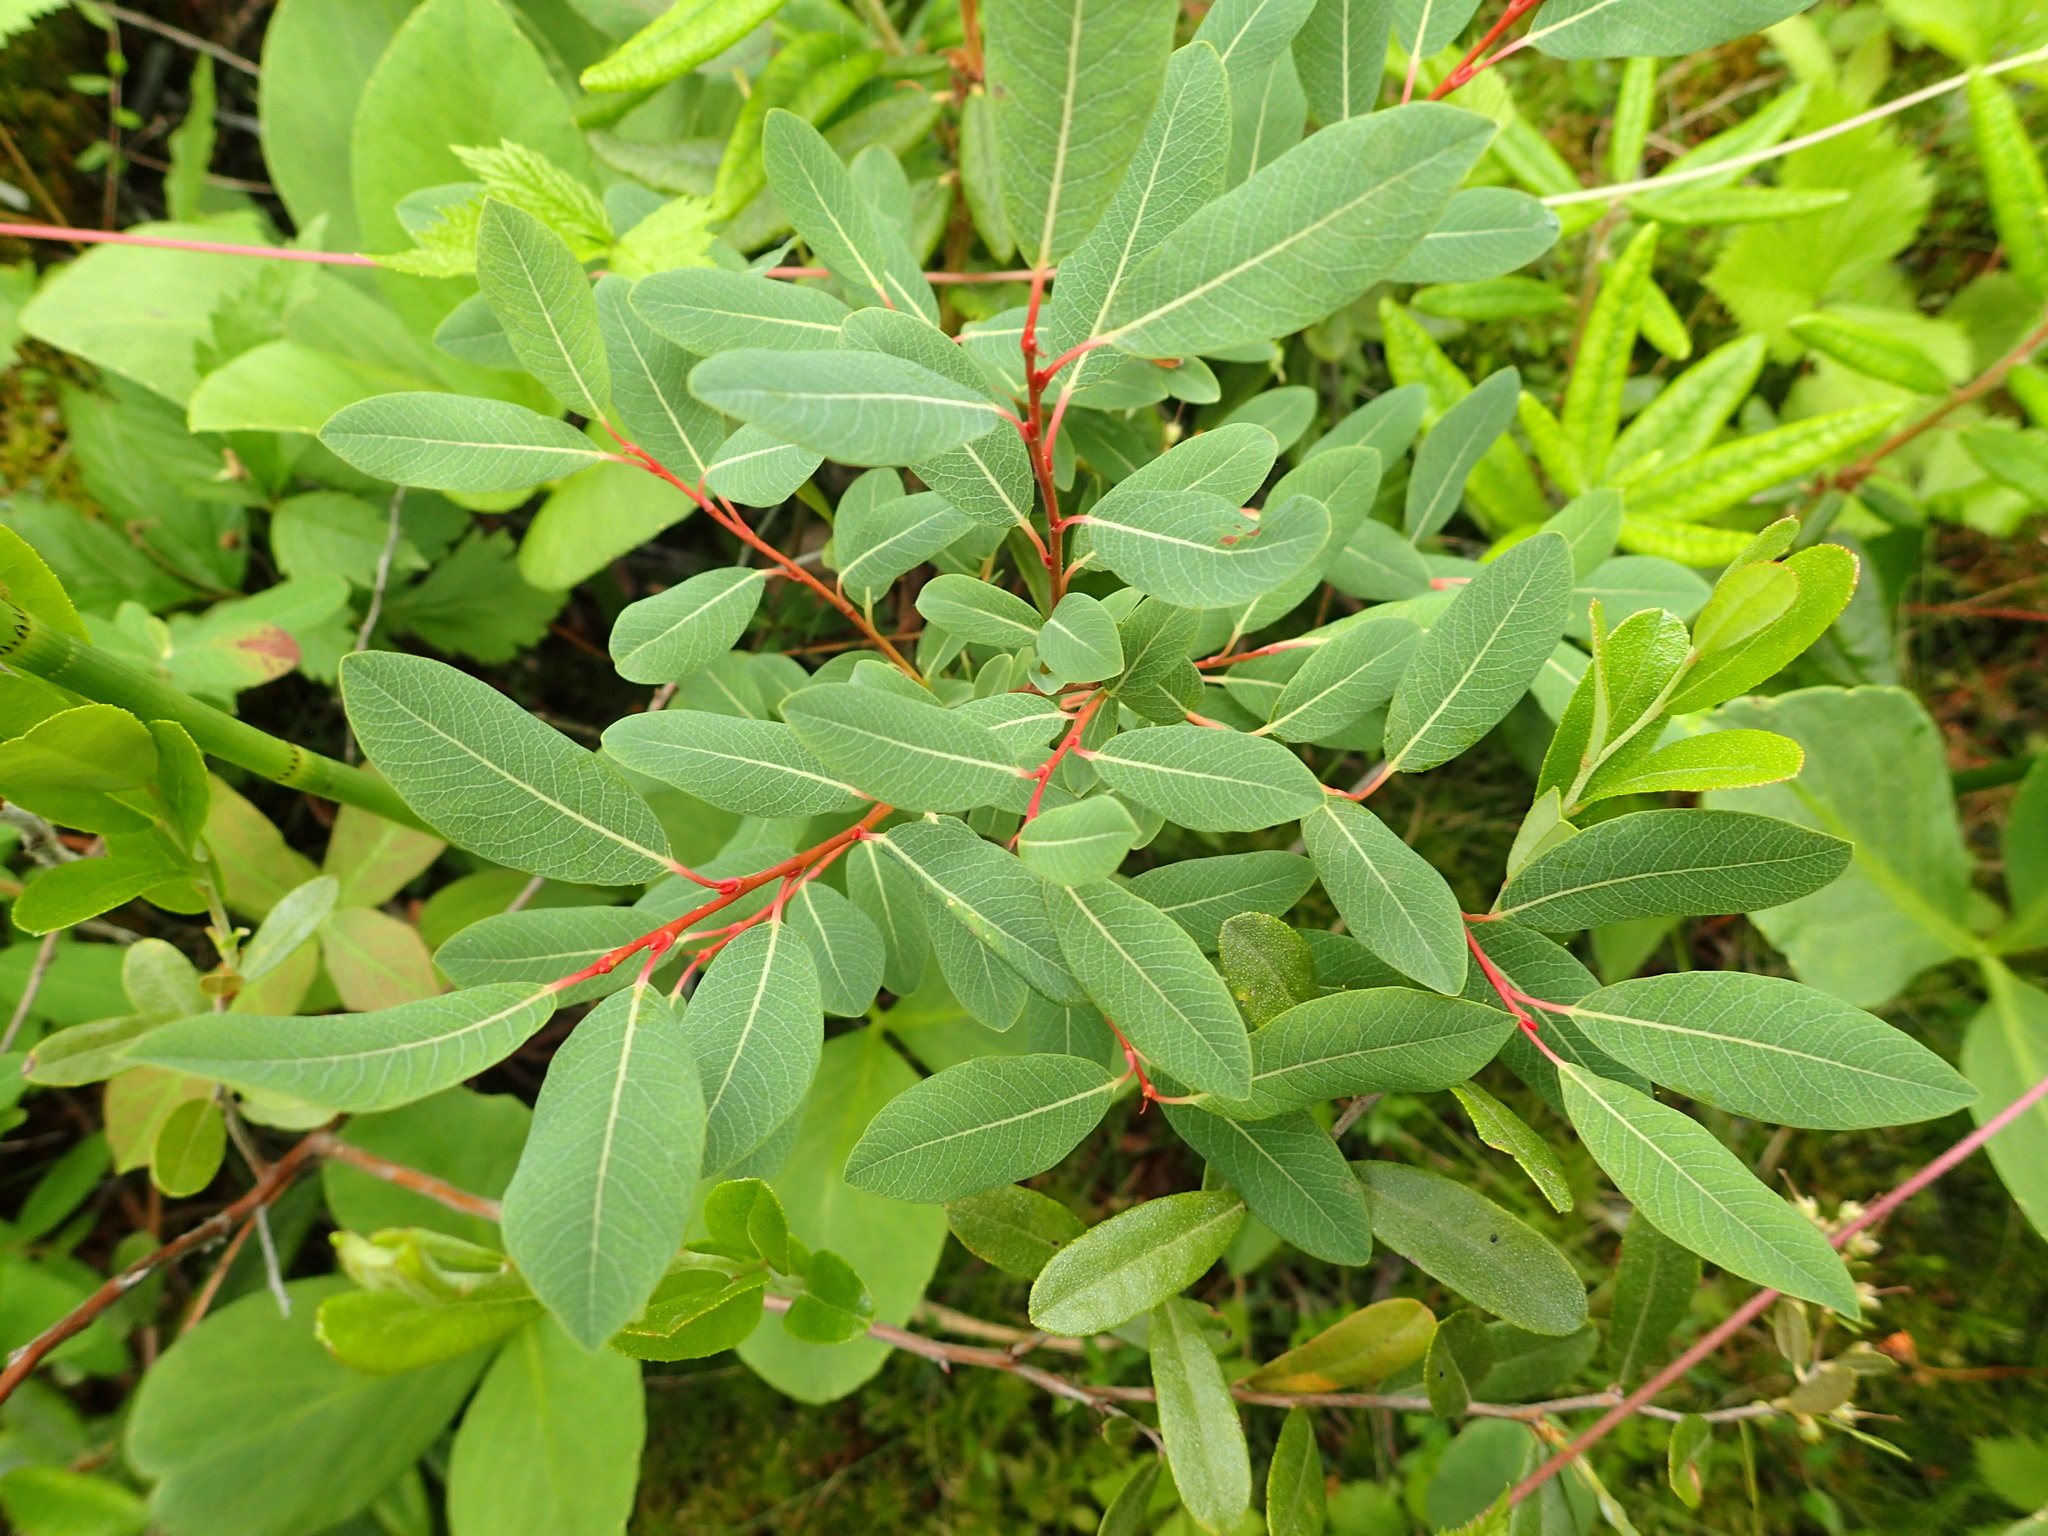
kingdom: Plantae
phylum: Tracheophyta
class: Magnoliopsida
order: Malpighiales
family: Salicaceae
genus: Salix
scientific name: Salix pedicellaris
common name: Bog willow
